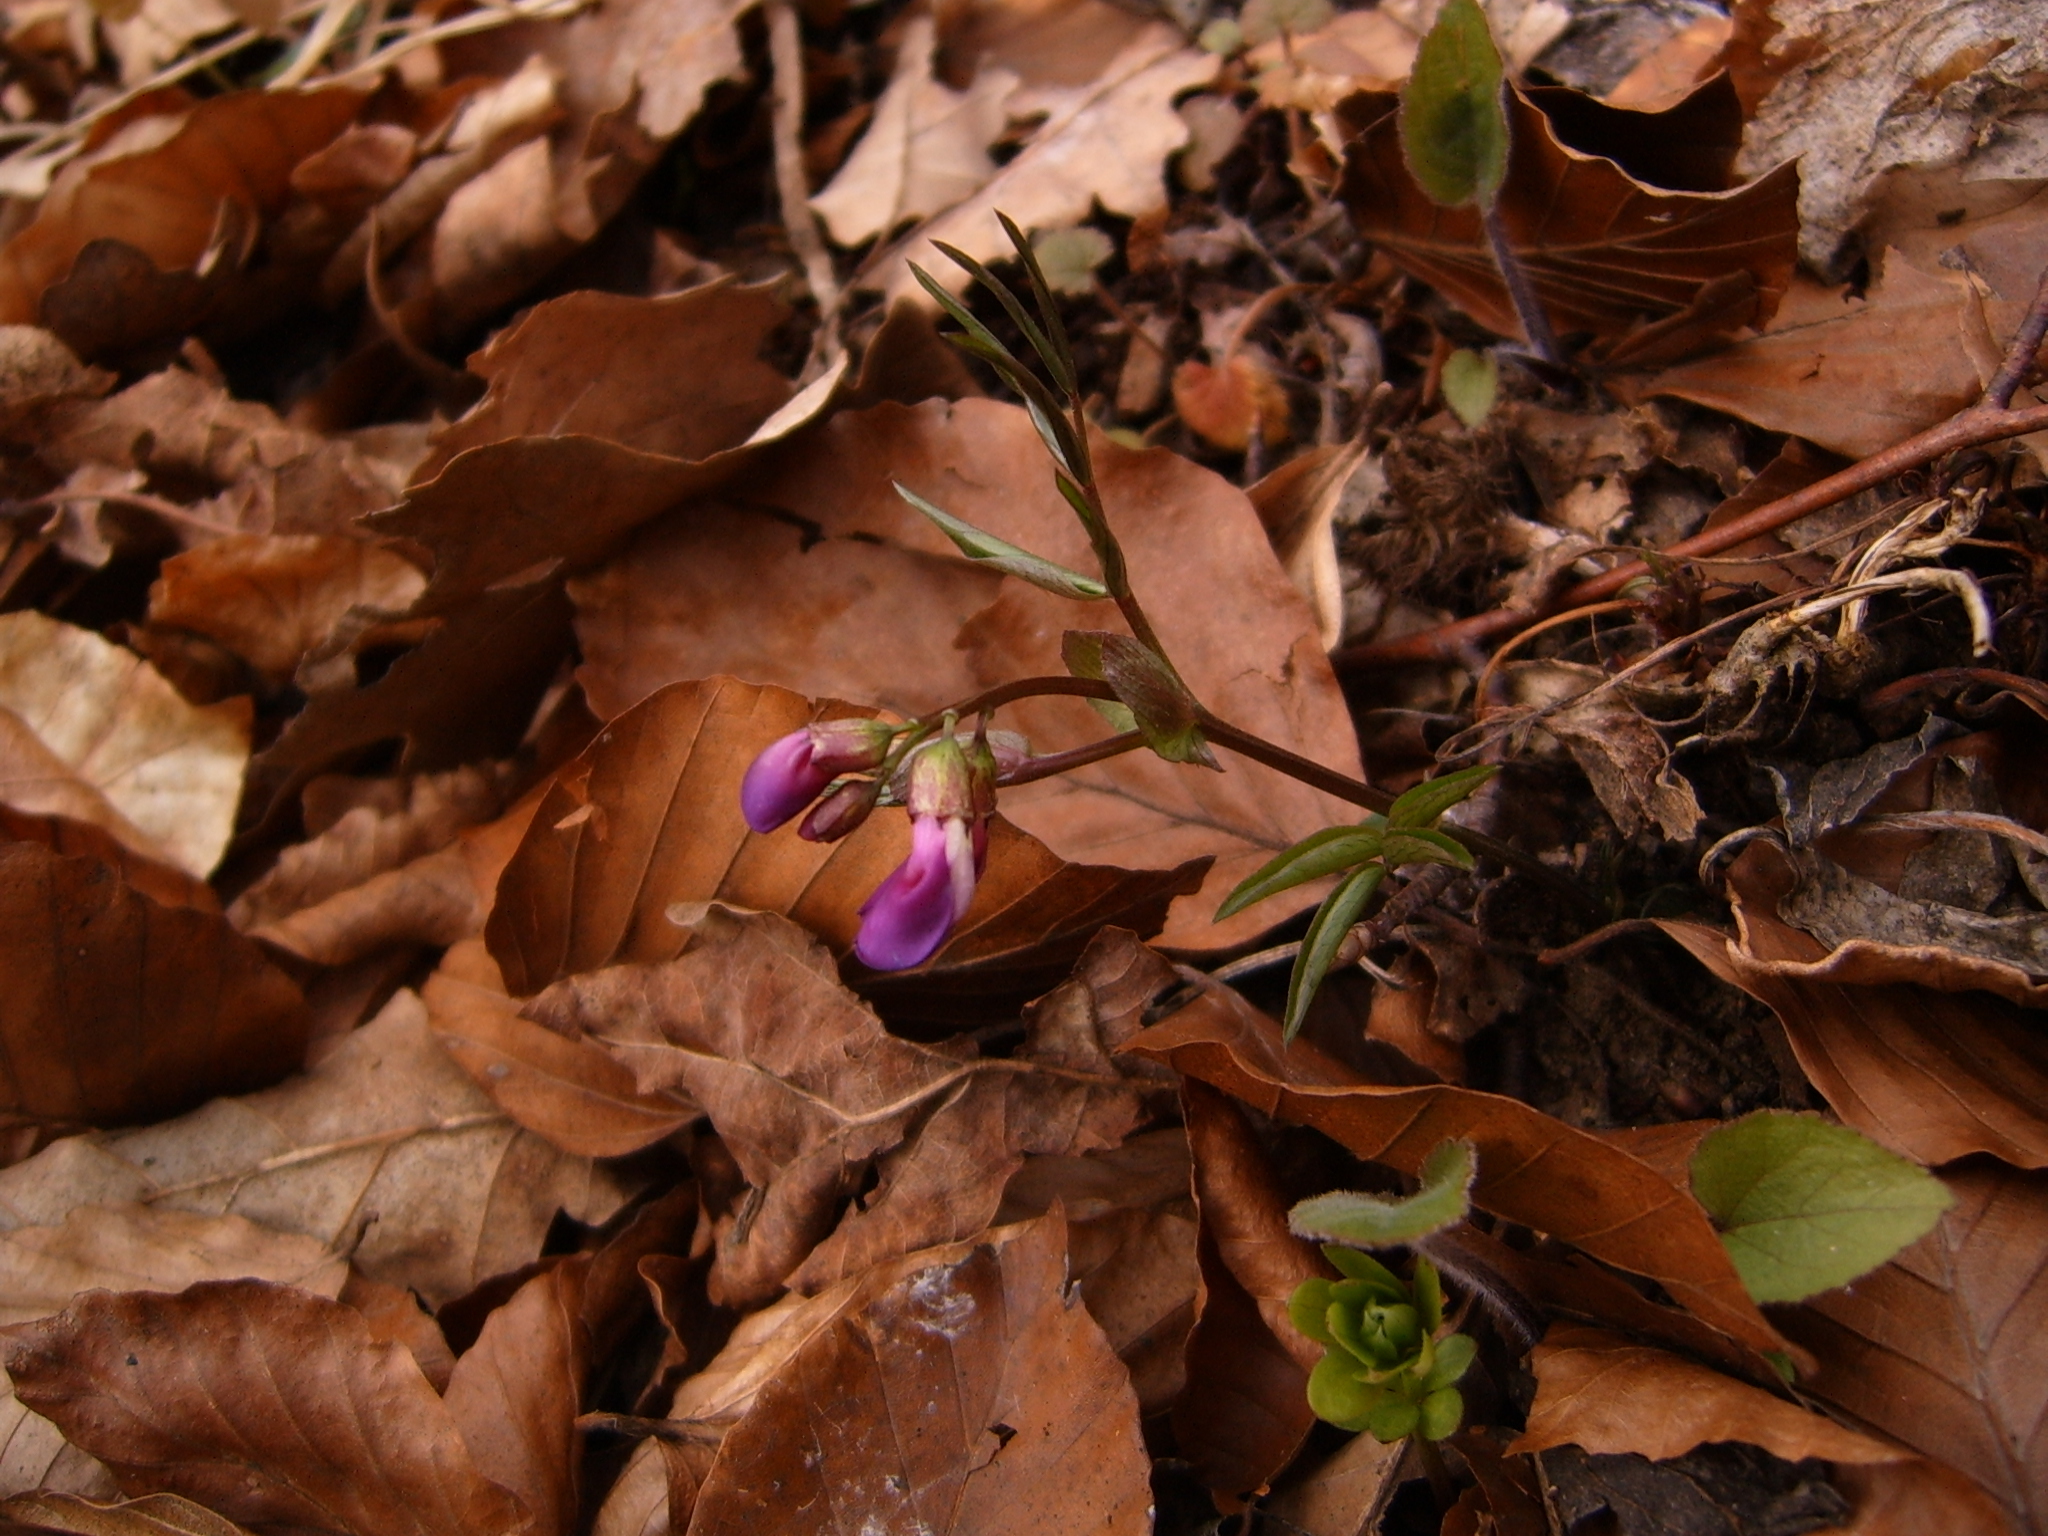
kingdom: Plantae
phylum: Tracheophyta
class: Magnoliopsida
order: Fabales
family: Fabaceae
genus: Lathyrus
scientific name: Lathyrus vernus
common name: Spring pea
